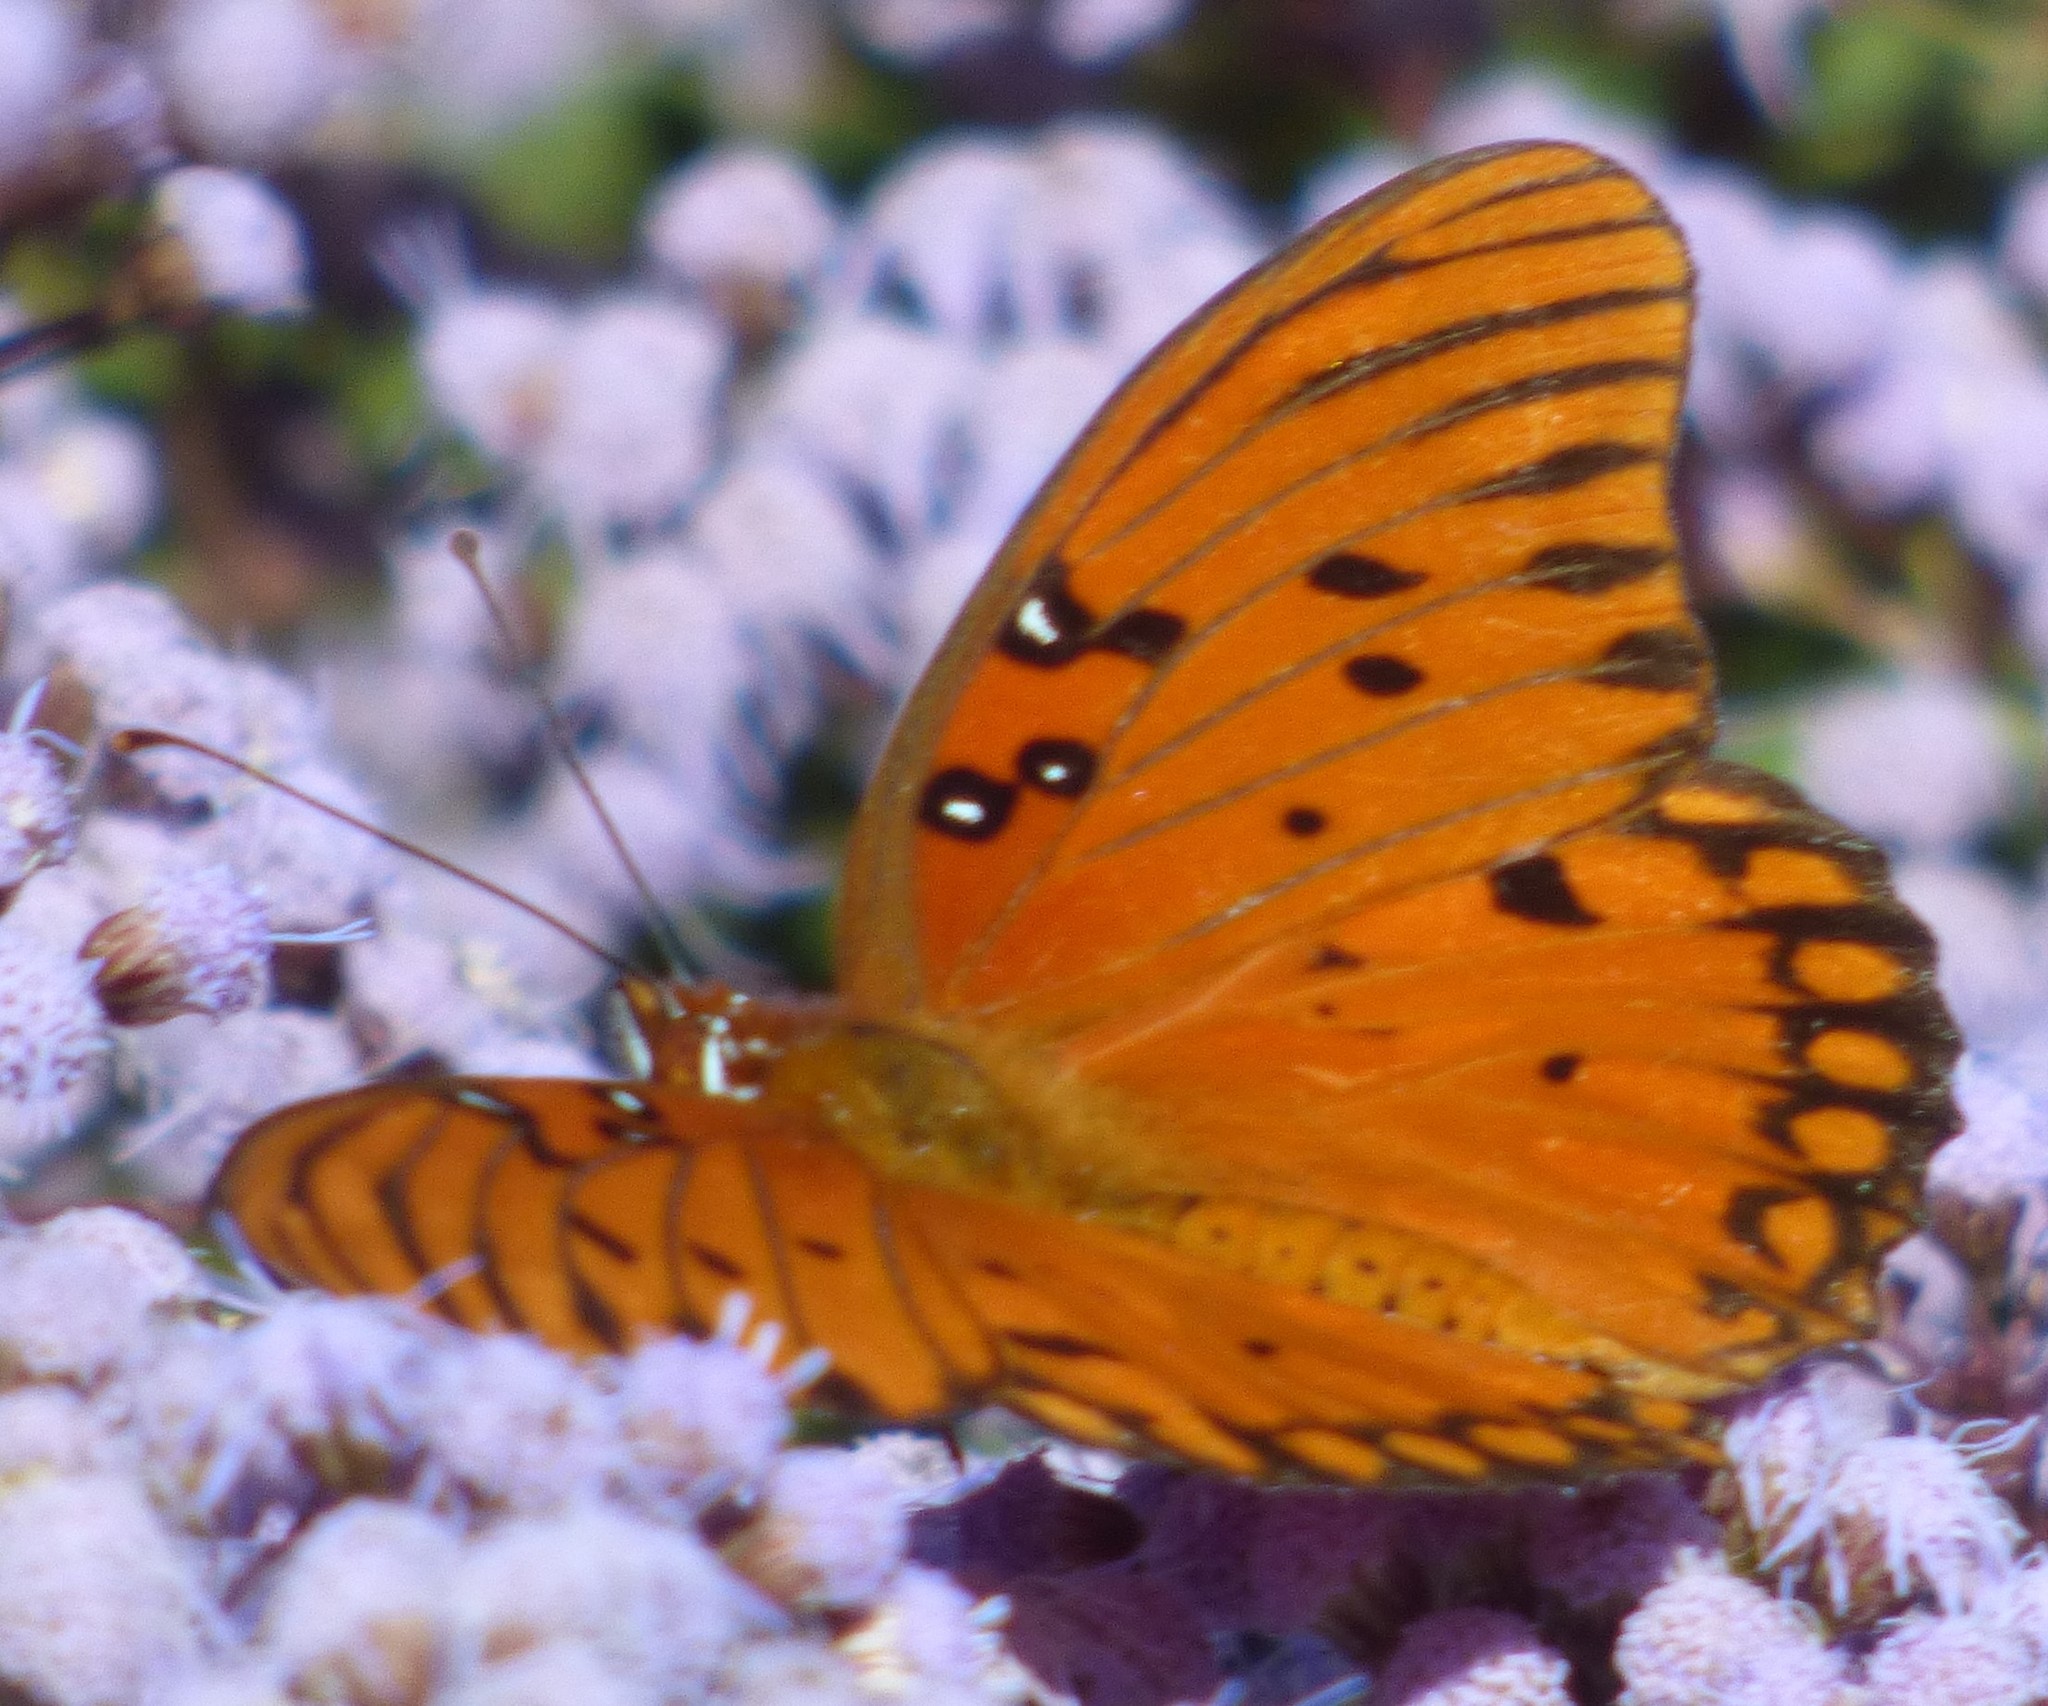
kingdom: Animalia
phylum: Arthropoda
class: Insecta
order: Lepidoptera
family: Nymphalidae
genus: Dione
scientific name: Dione vanillae
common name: Gulf fritillary
